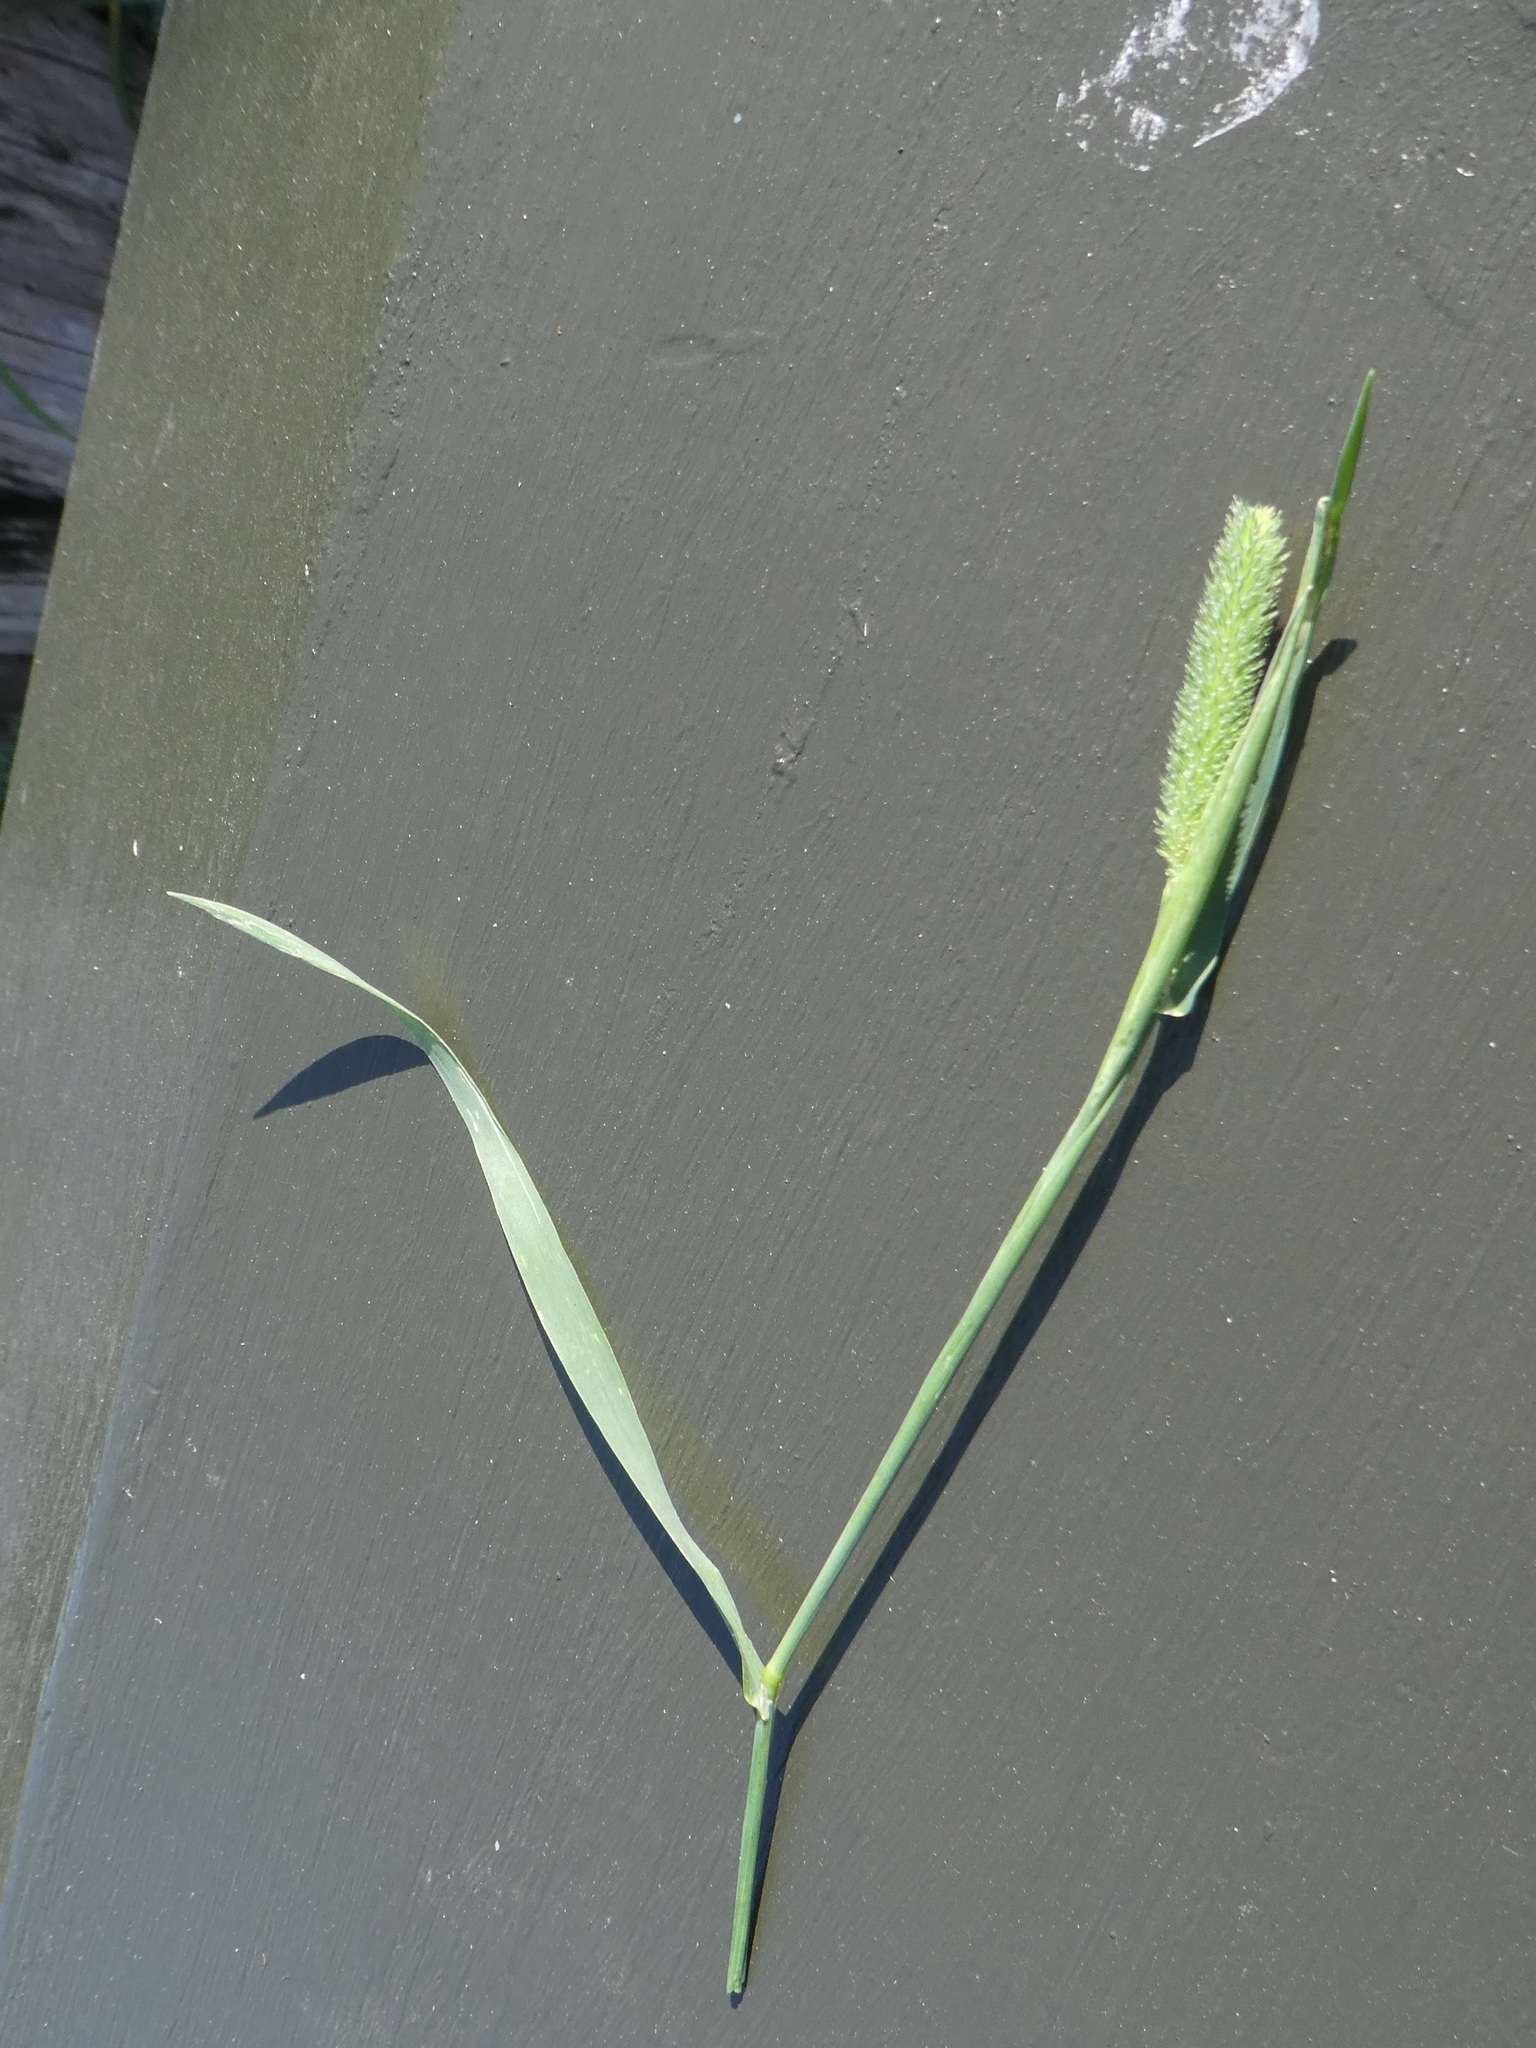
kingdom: Plantae
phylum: Tracheophyta
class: Liliopsida
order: Poales
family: Poaceae
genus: Phleum
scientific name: Phleum pratense
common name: Timothy grass
